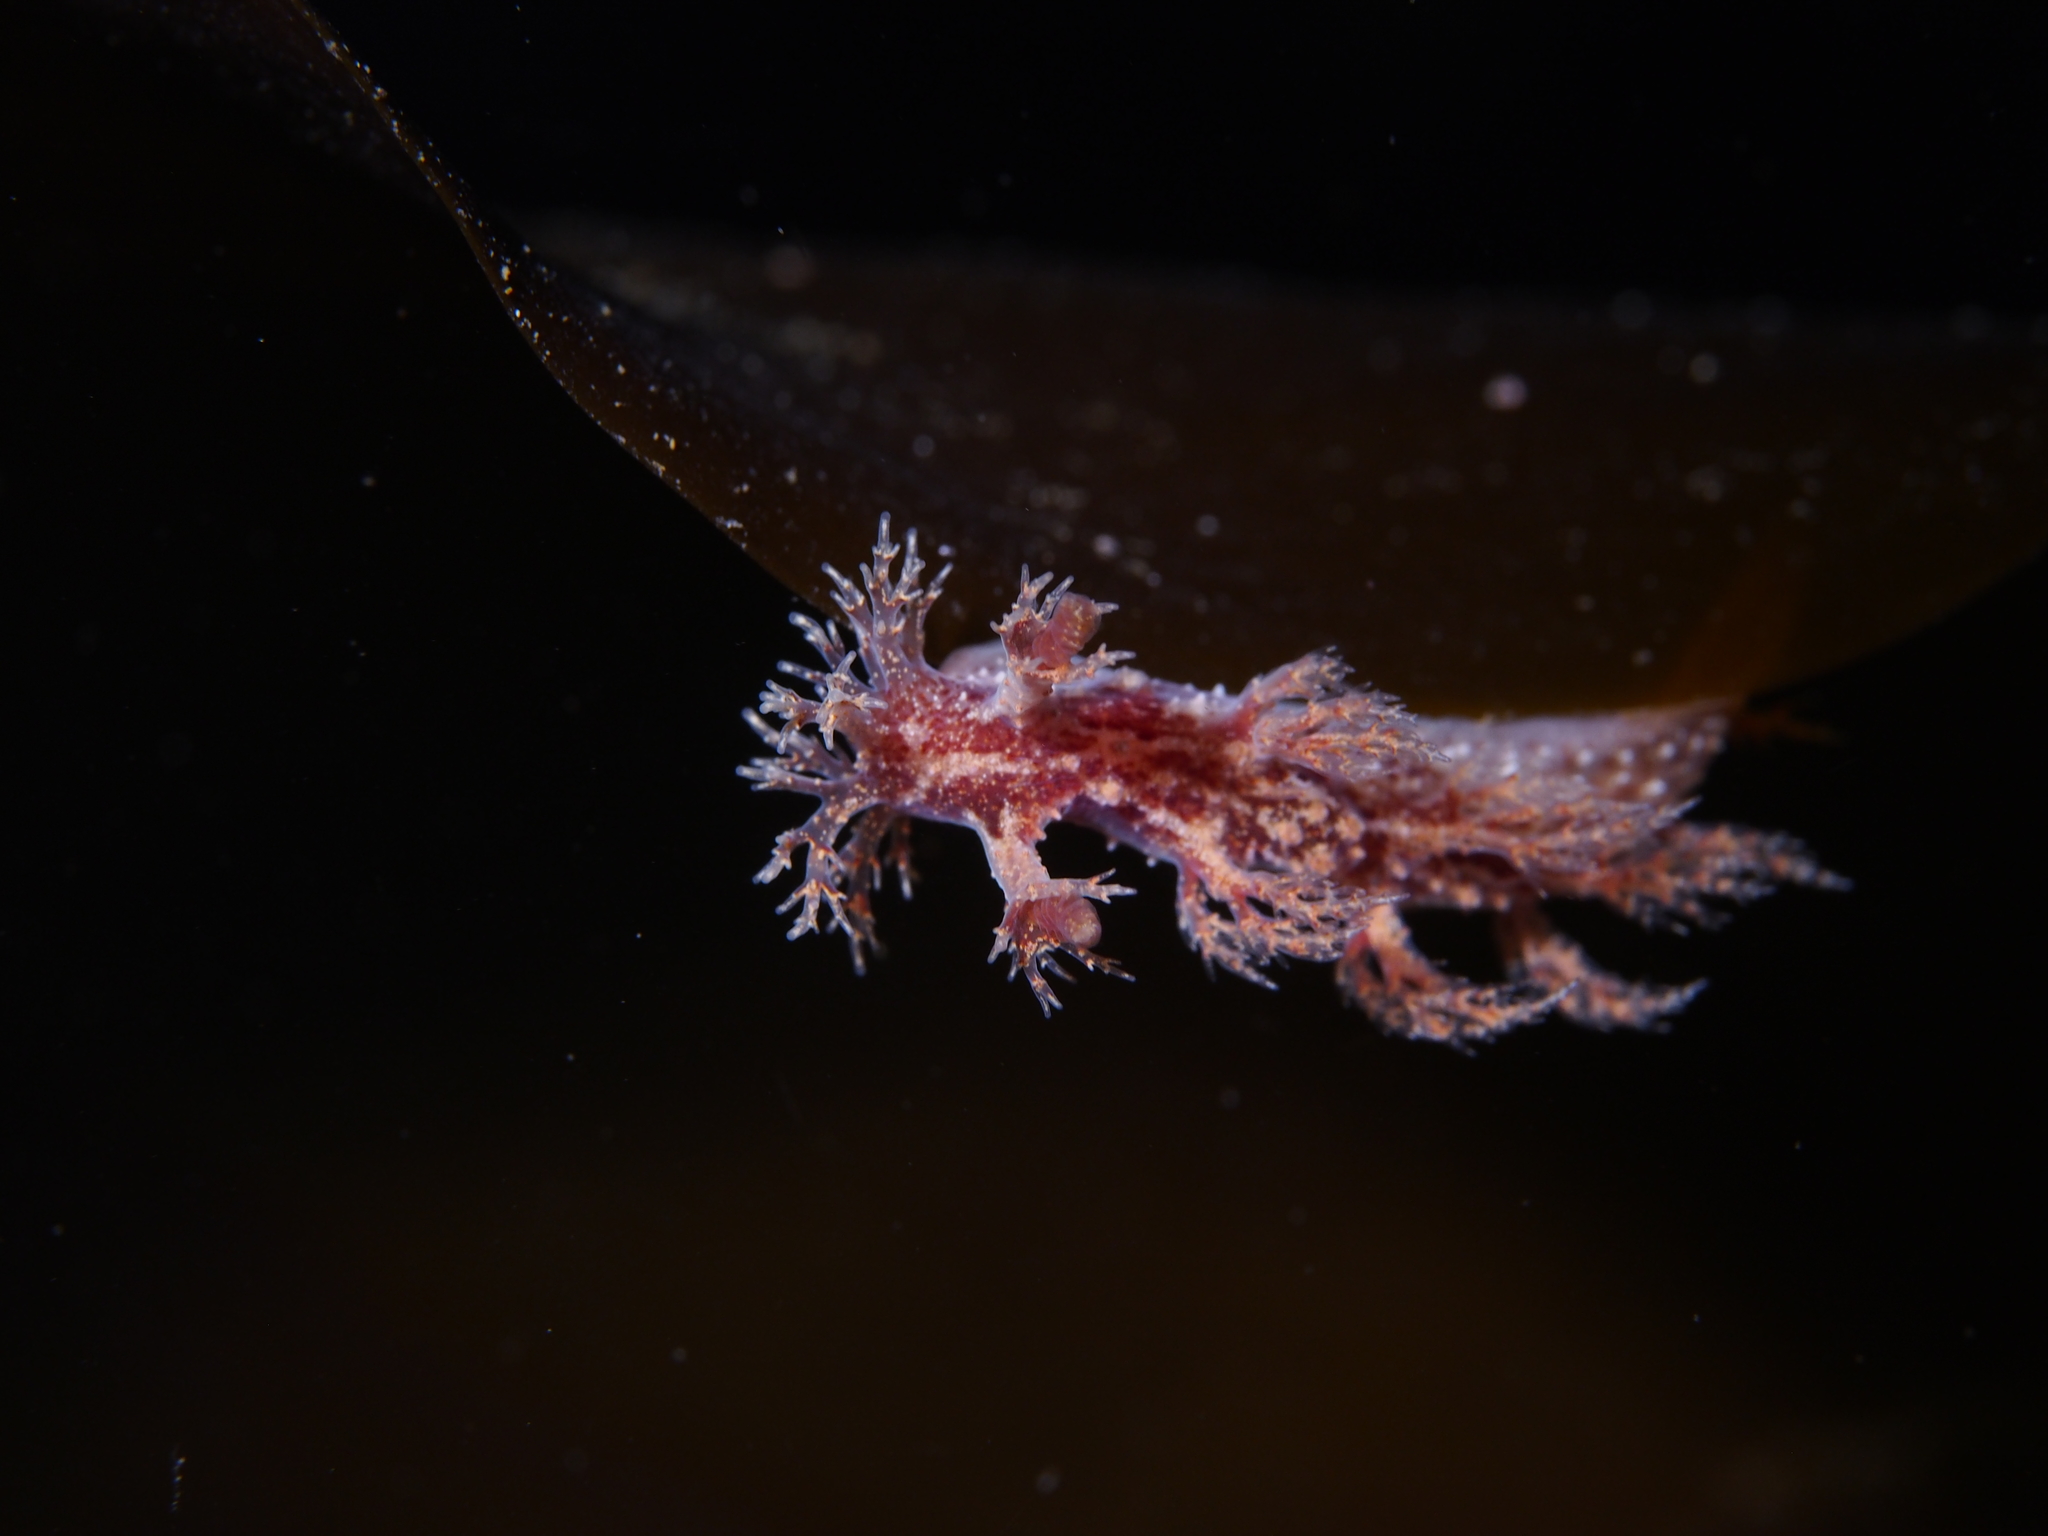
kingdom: Animalia
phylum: Mollusca
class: Gastropoda
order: Nudibranchia
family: Dendronotidae
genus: Dendronotus
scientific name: Dendronotus frondosus
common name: Bushy-backed nudibranch
